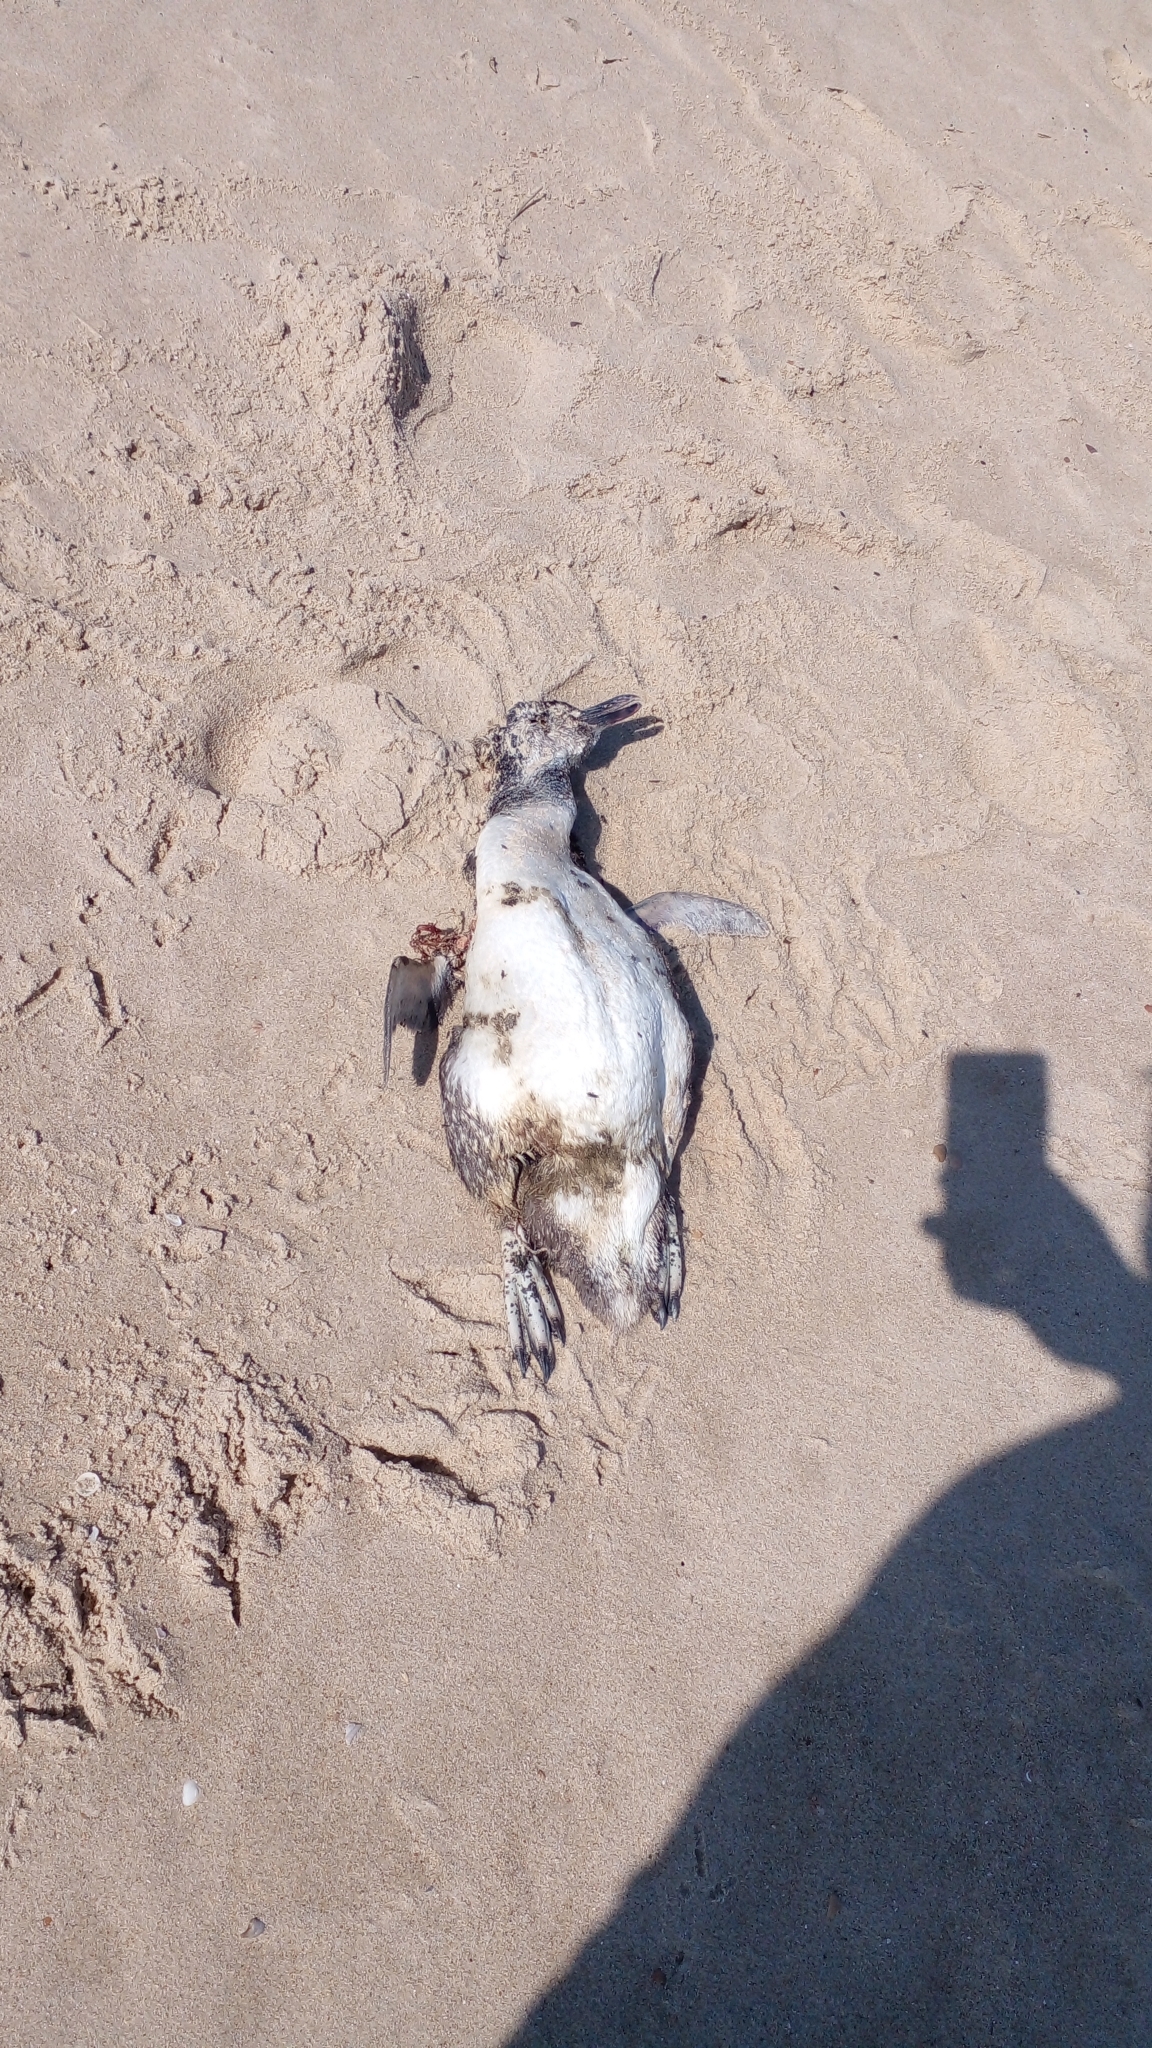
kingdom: Animalia
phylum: Chordata
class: Aves
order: Sphenisciformes
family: Spheniscidae
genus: Spheniscus
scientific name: Spheniscus magellanicus
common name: Magellanic penguin
